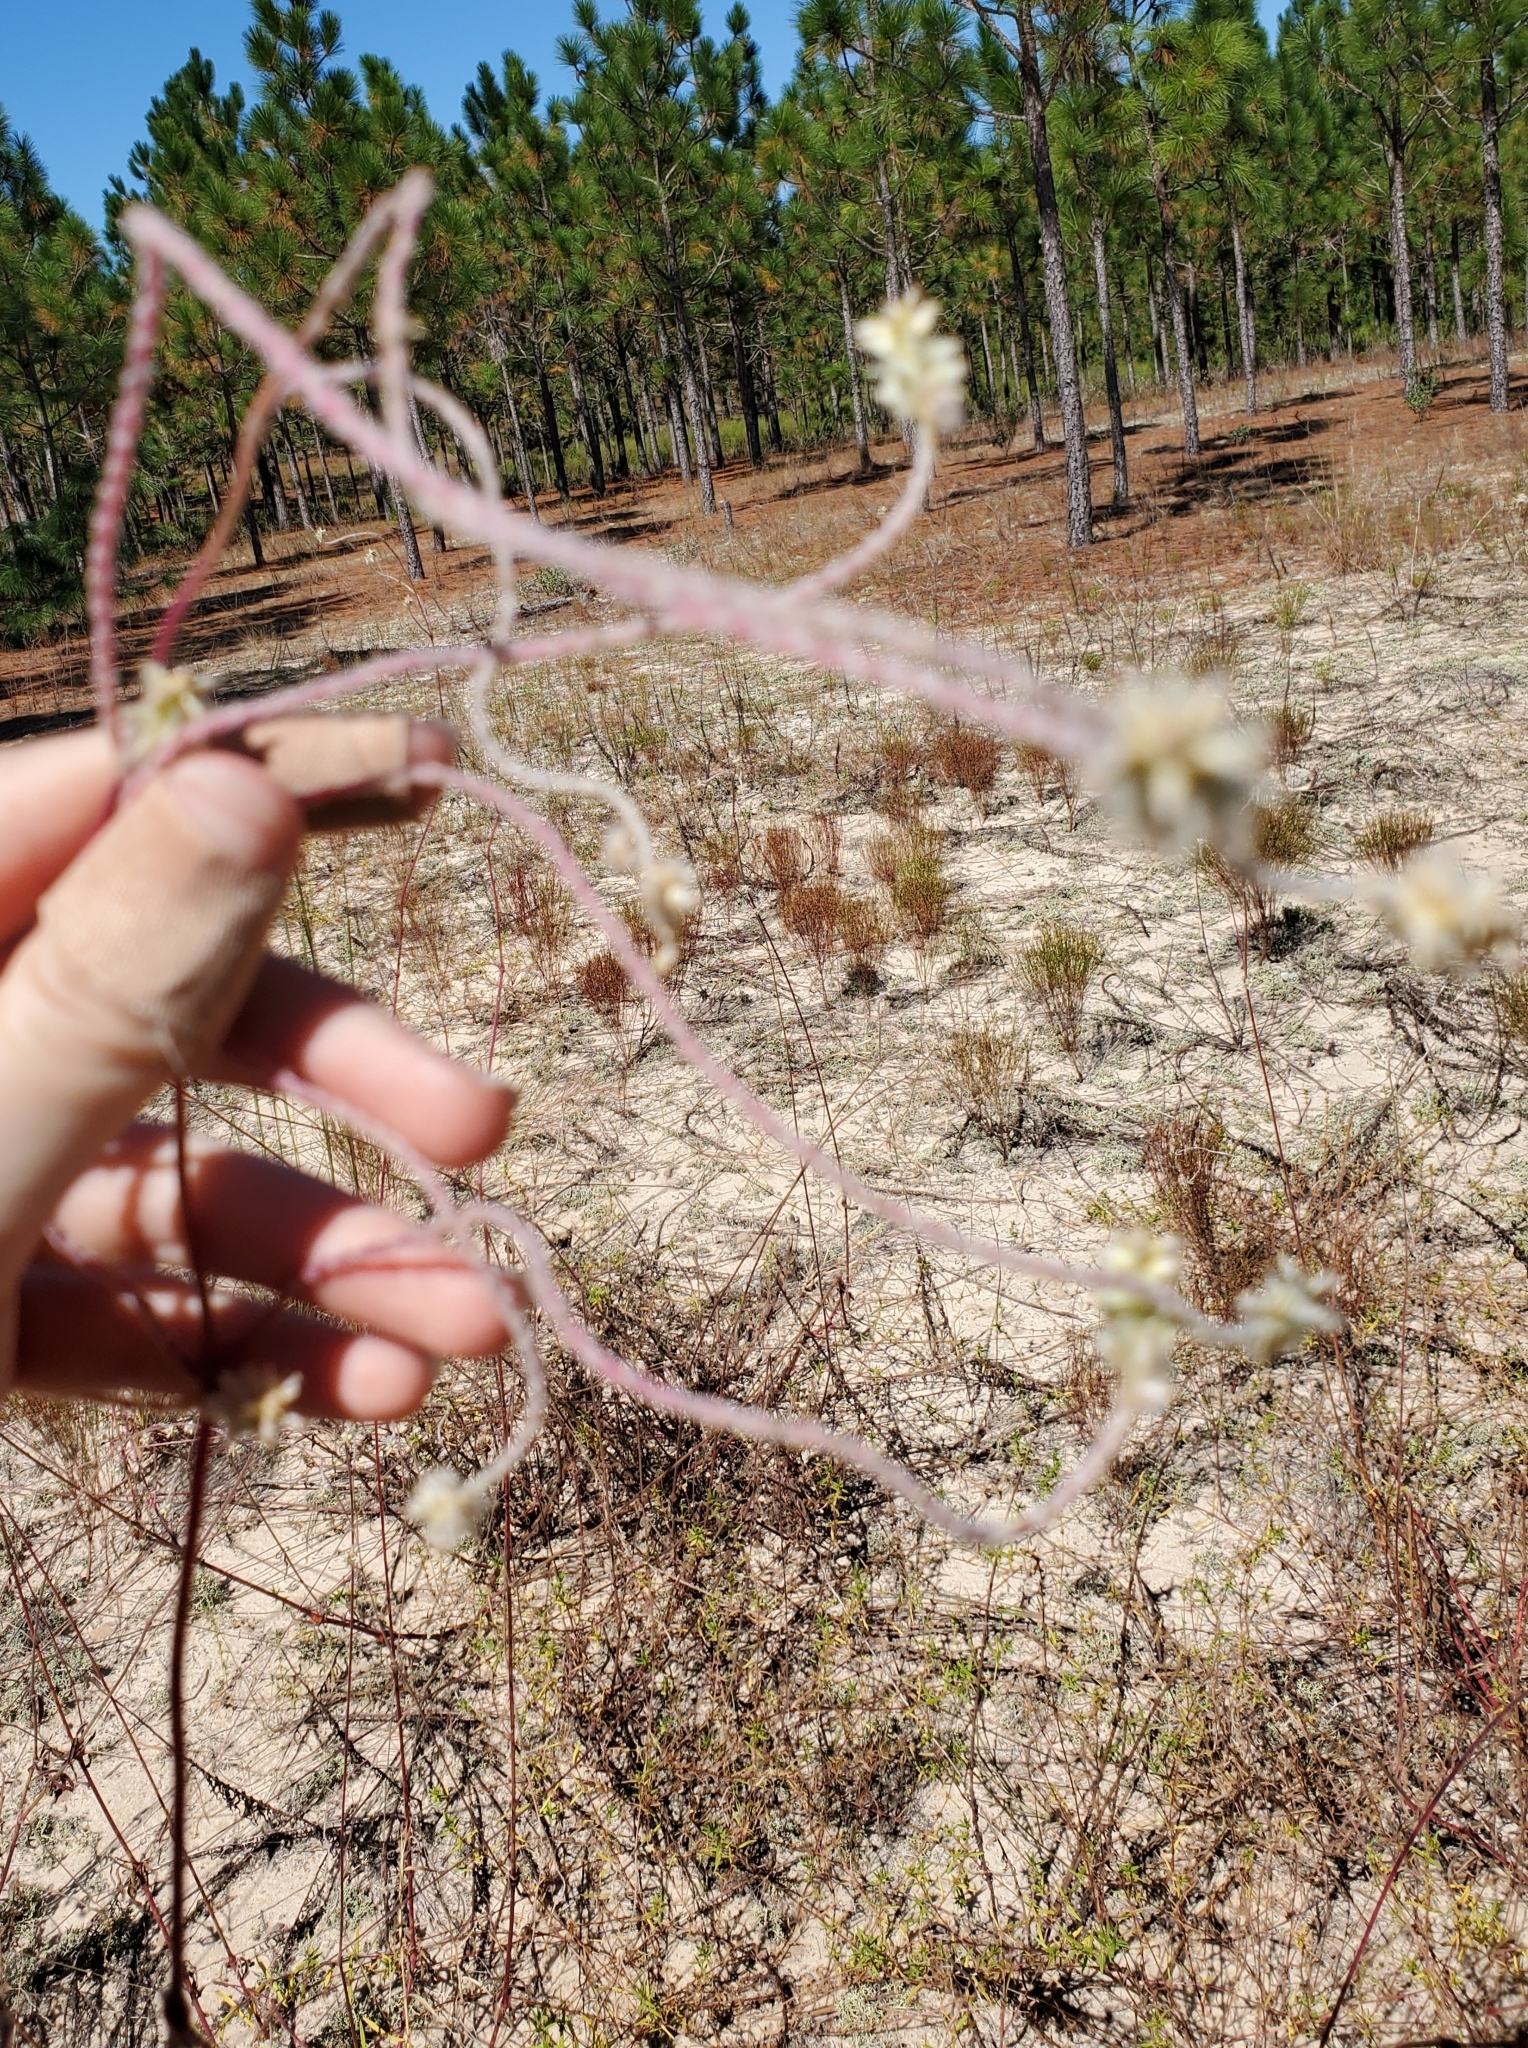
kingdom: Plantae
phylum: Tracheophyta
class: Magnoliopsida
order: Caryophyllales
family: Amaranthaceae
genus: Froelichia
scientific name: Froelichia floridana
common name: Florida snake-cotton
